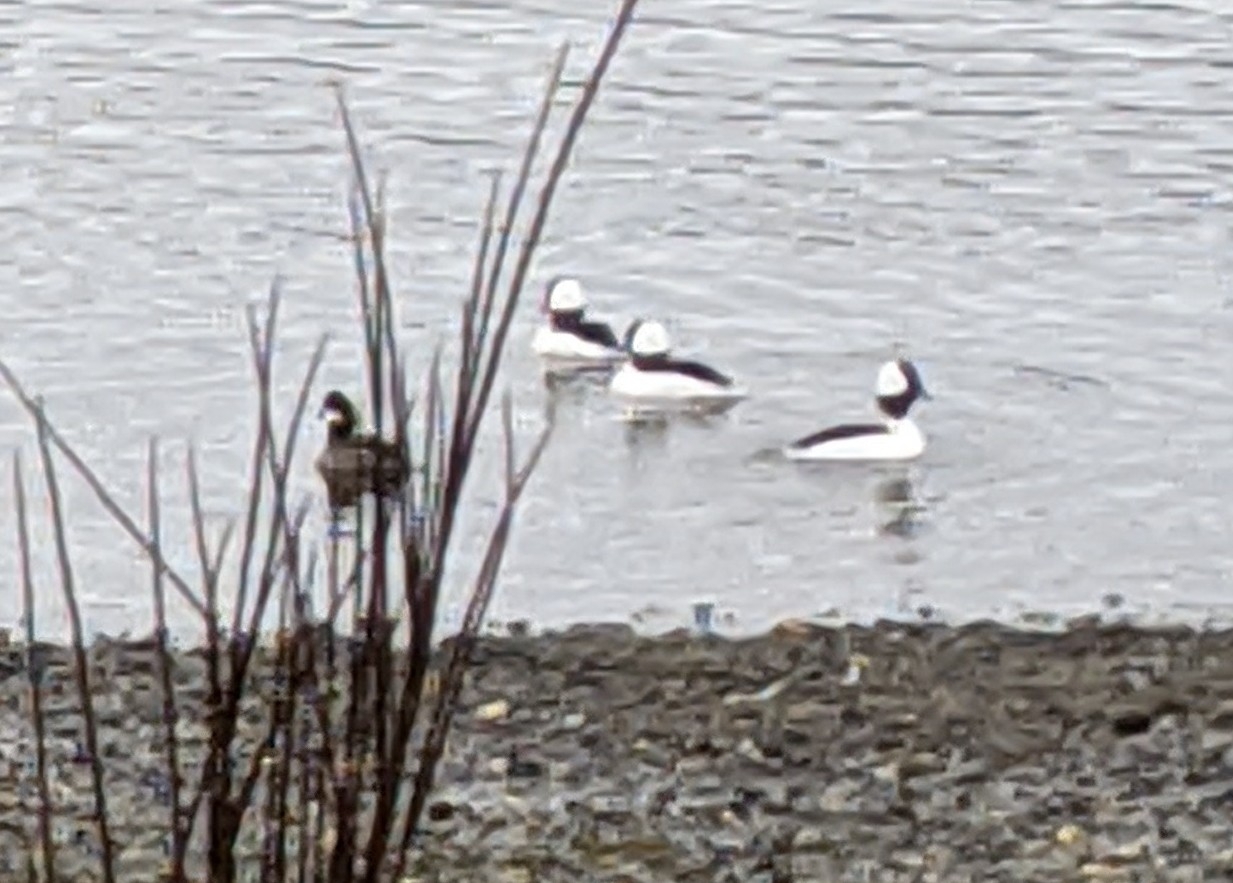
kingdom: Animalia
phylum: Chordata
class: Aves
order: Anseriformes
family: Anatidae
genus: Bucephala
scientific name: Bucephala albeola
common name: Bufflehead
